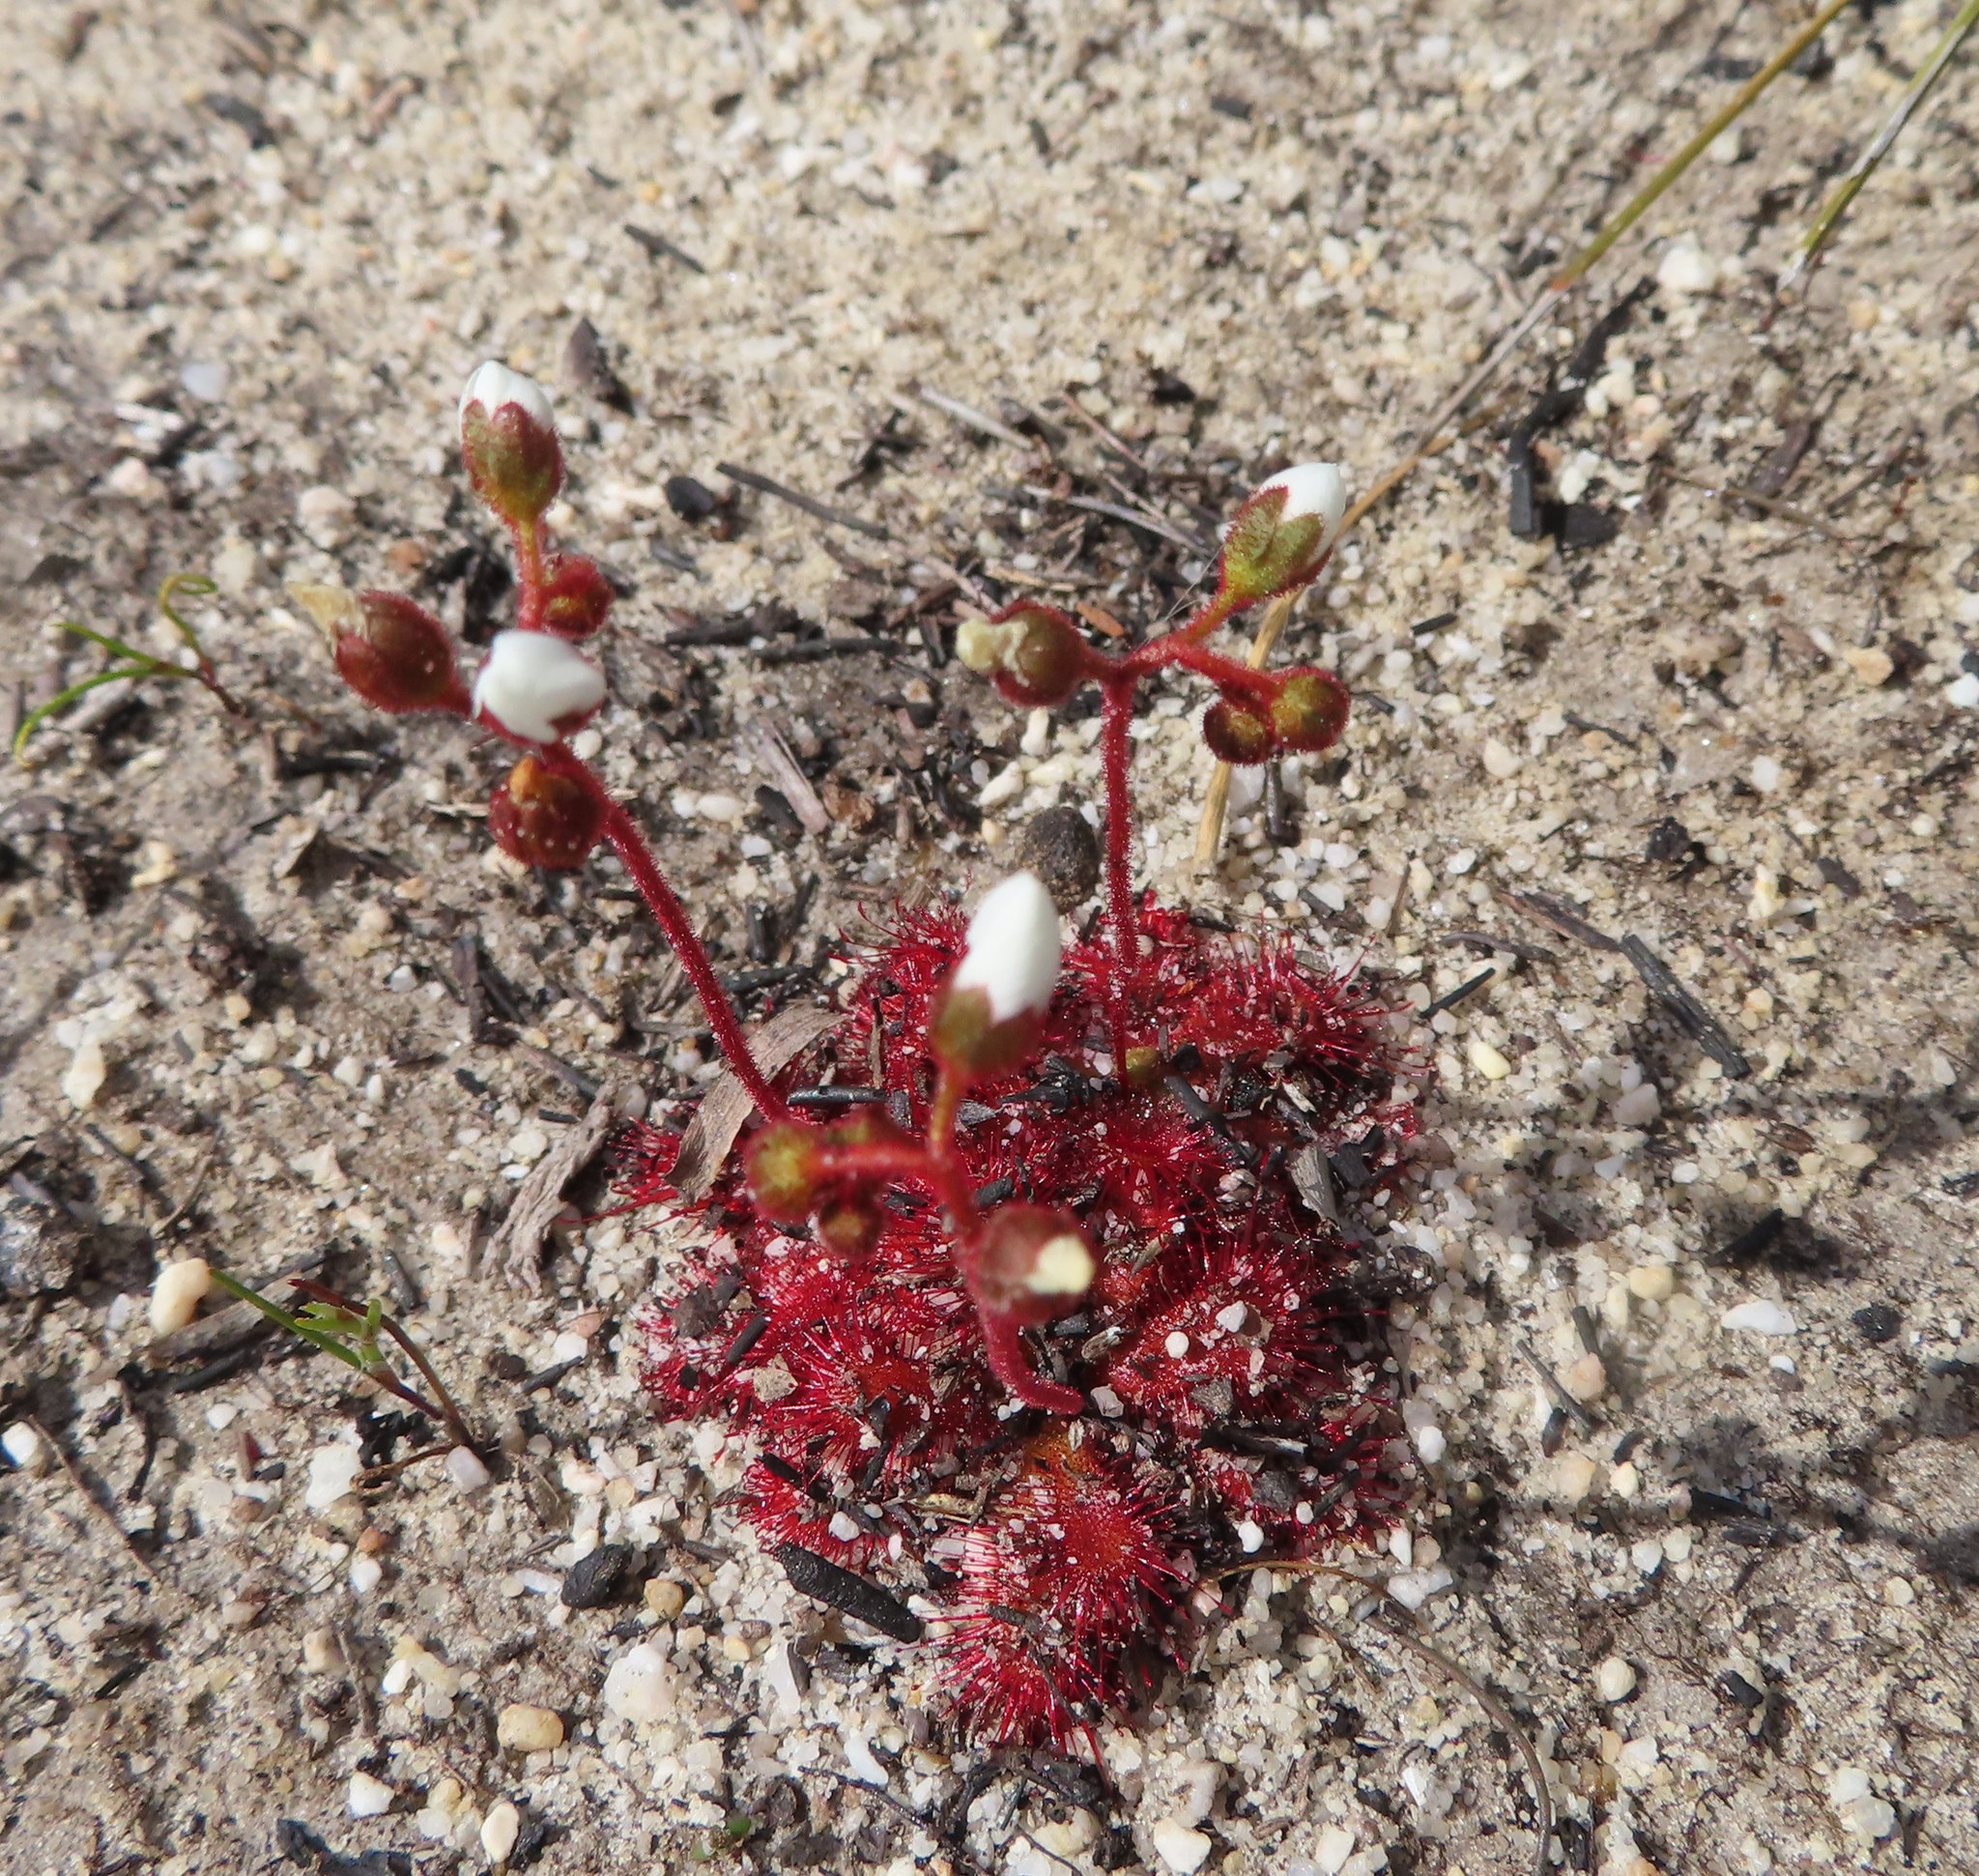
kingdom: Plantae
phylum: Tracheophyta
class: Magnoliopsida
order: Caryophyllales
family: Droseraceae
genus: Drosera
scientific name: Drosera trinervia
